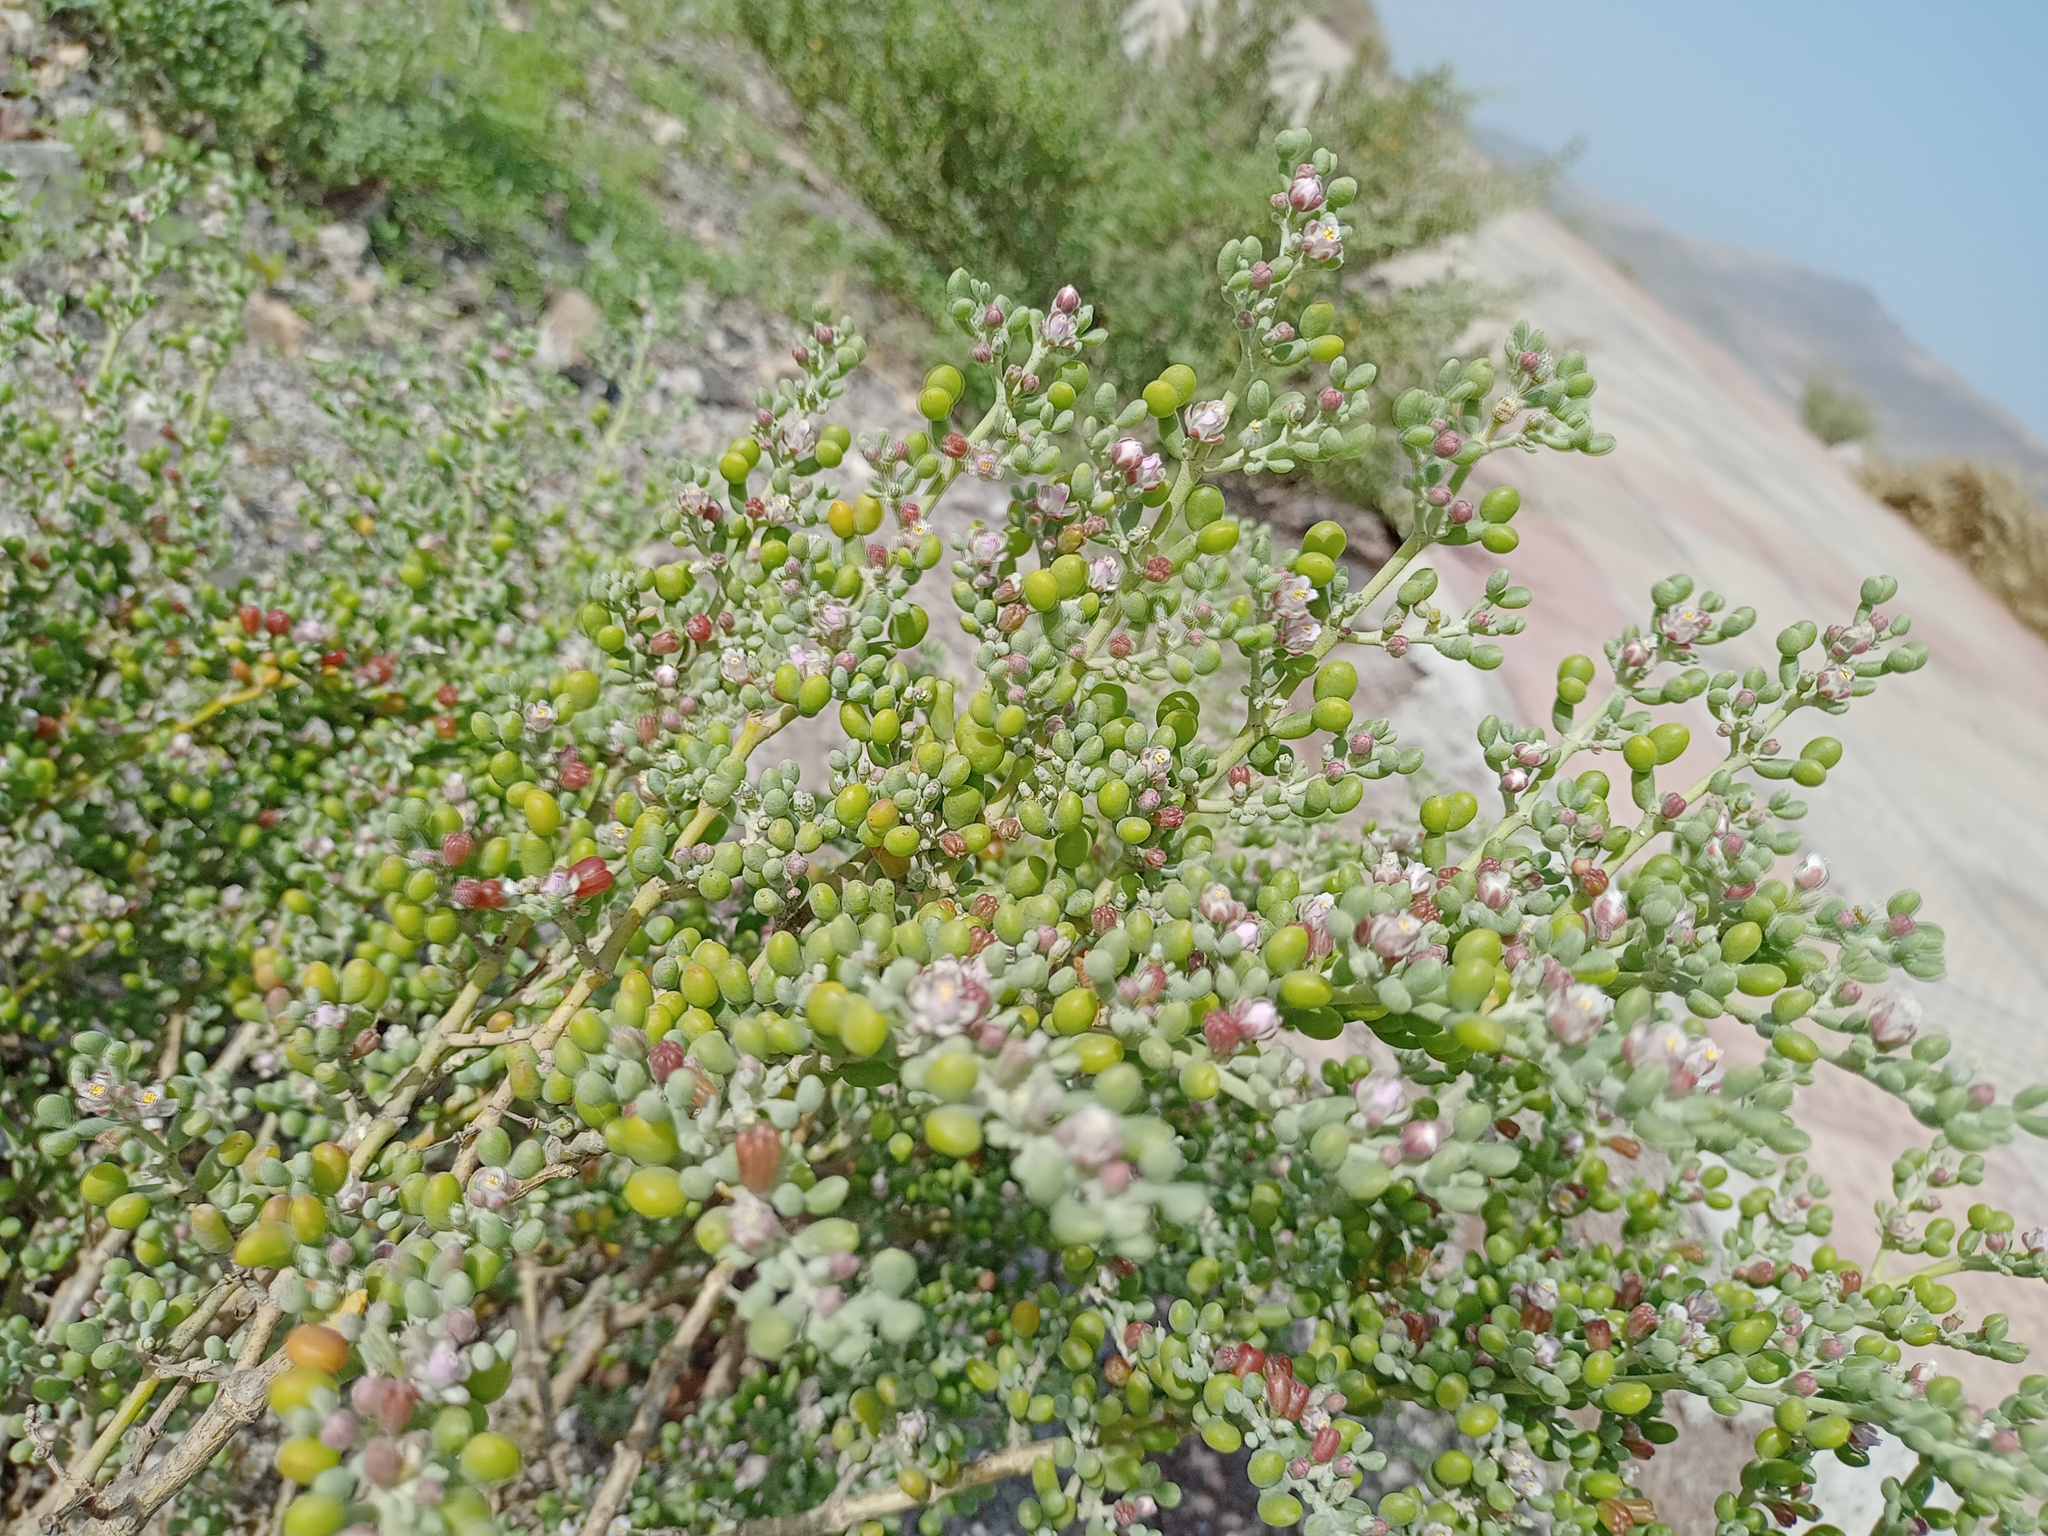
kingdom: Plantae
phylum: Tracheophyta
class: Magnoliopsida
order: Zygophyllales
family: Zygophyllaceae
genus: Tetraena
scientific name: Tetraena fontanesii
